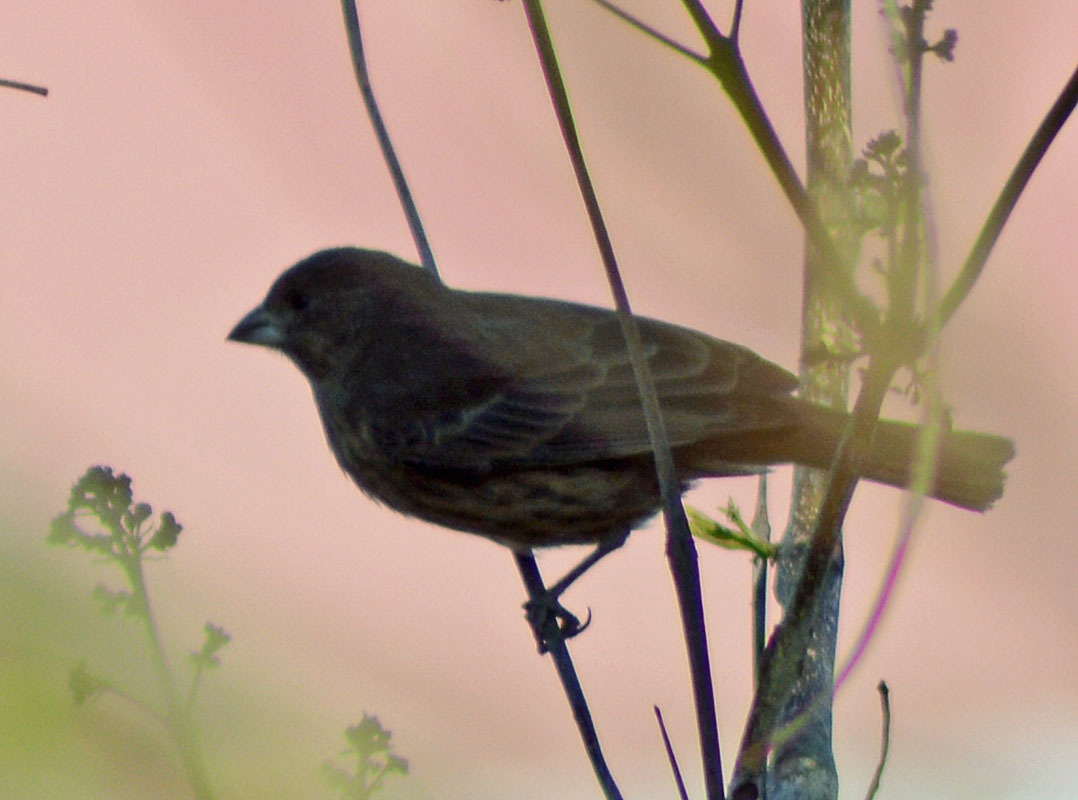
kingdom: Animalia
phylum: Chordata
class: Aves
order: Passeriformes
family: Fringillidae
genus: Haemorhous
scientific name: Haemorhous mexicanus
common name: House finch
